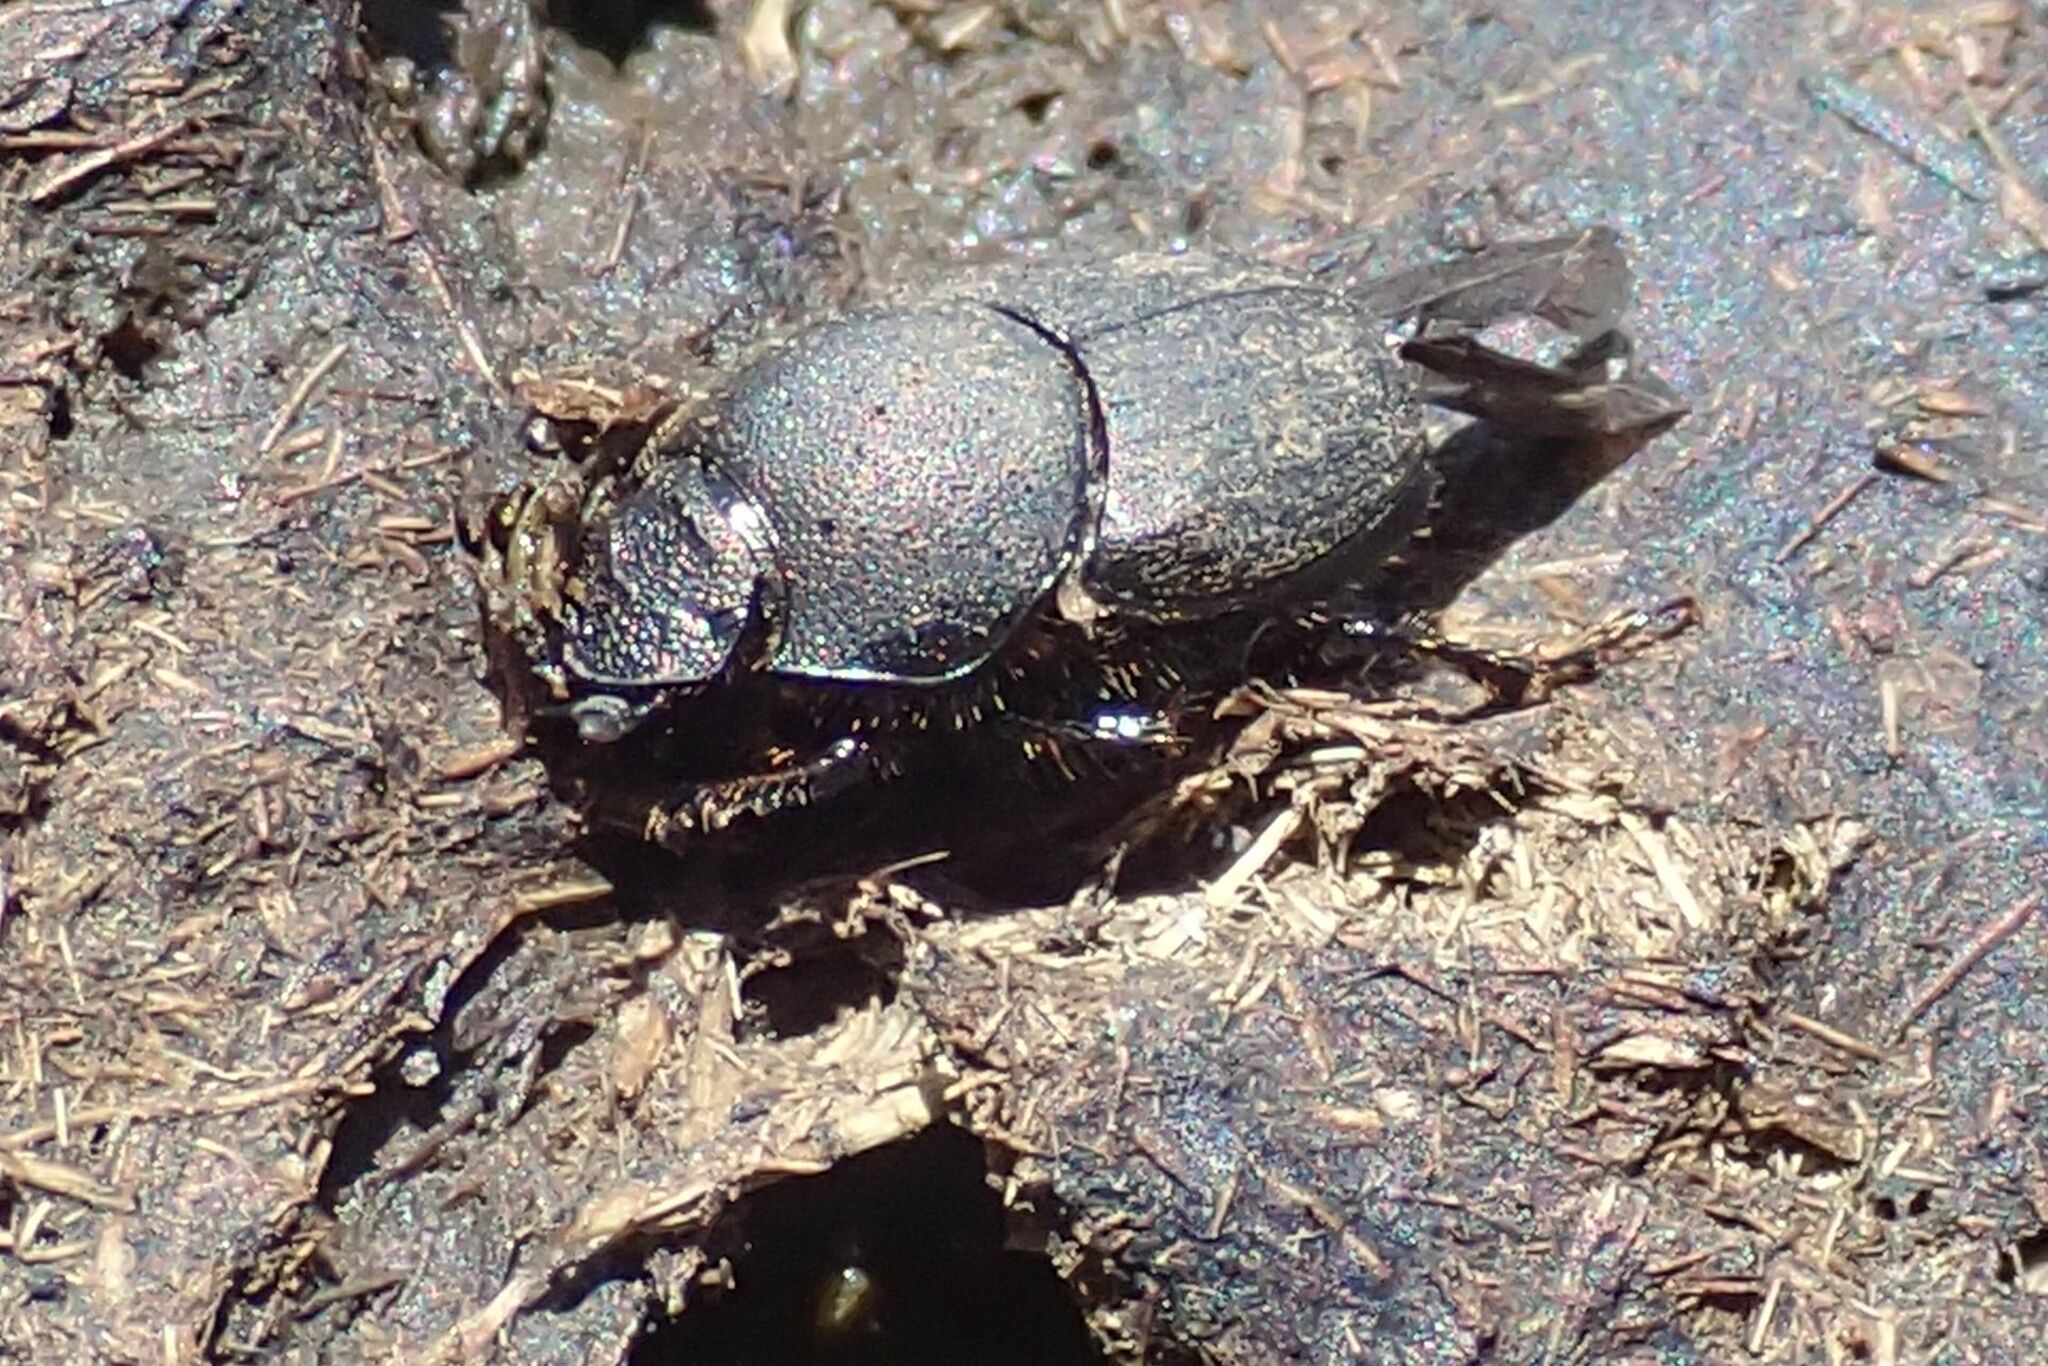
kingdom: Animalia
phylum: Arthropoda
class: Insecta
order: Coleoptera
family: Scarabaeidae
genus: Onthophagus
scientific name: Onthophagus vigens
